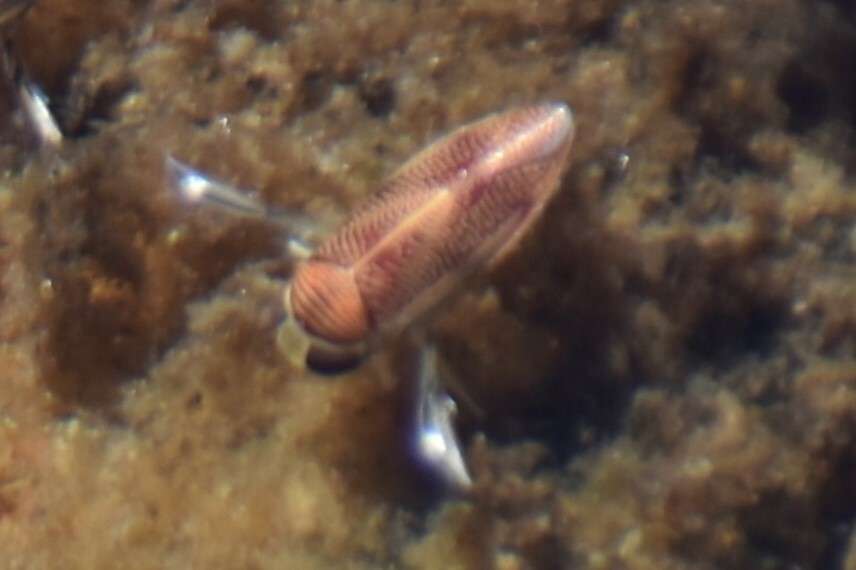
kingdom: Animalia
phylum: Arthropoda
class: Insecta
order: Hemiptera
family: Corixidae
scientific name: Corixidae
